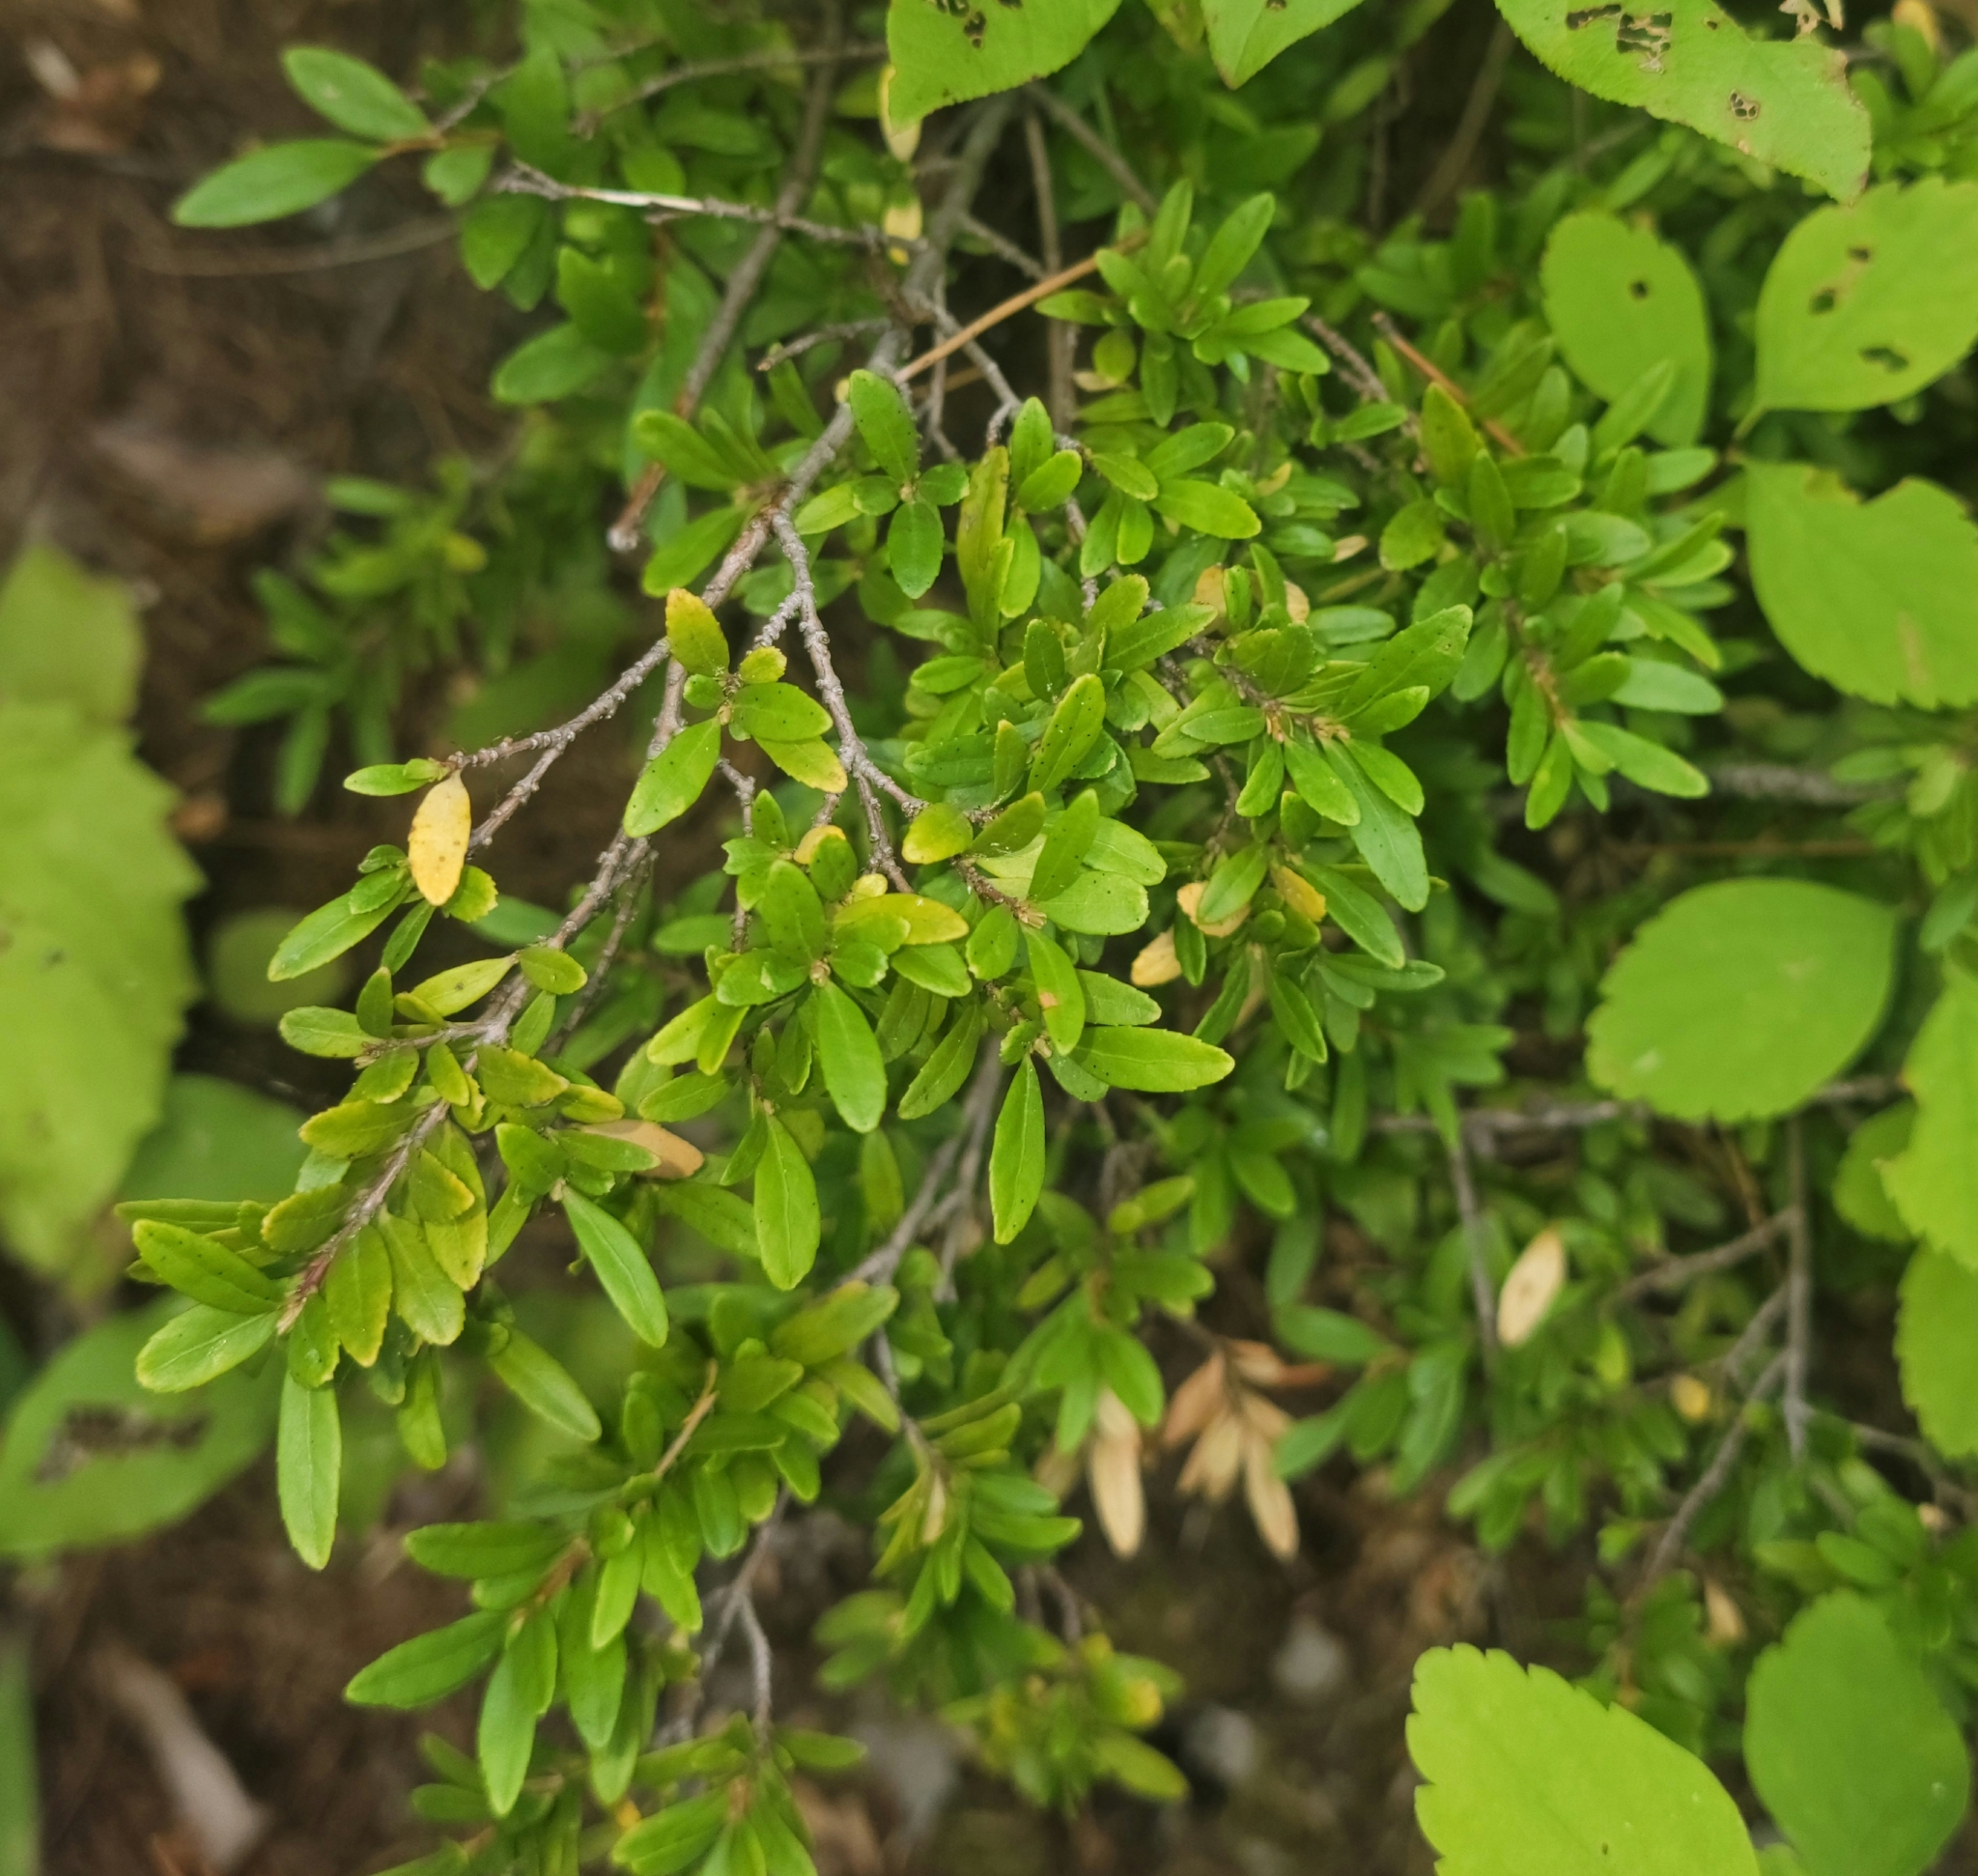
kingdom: Plantae
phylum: Tracheophyta
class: Magnoliopsida
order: Celastrales
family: Celastraceae
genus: Paxistima
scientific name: Paxistima myrsinites
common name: Mountain-lover
